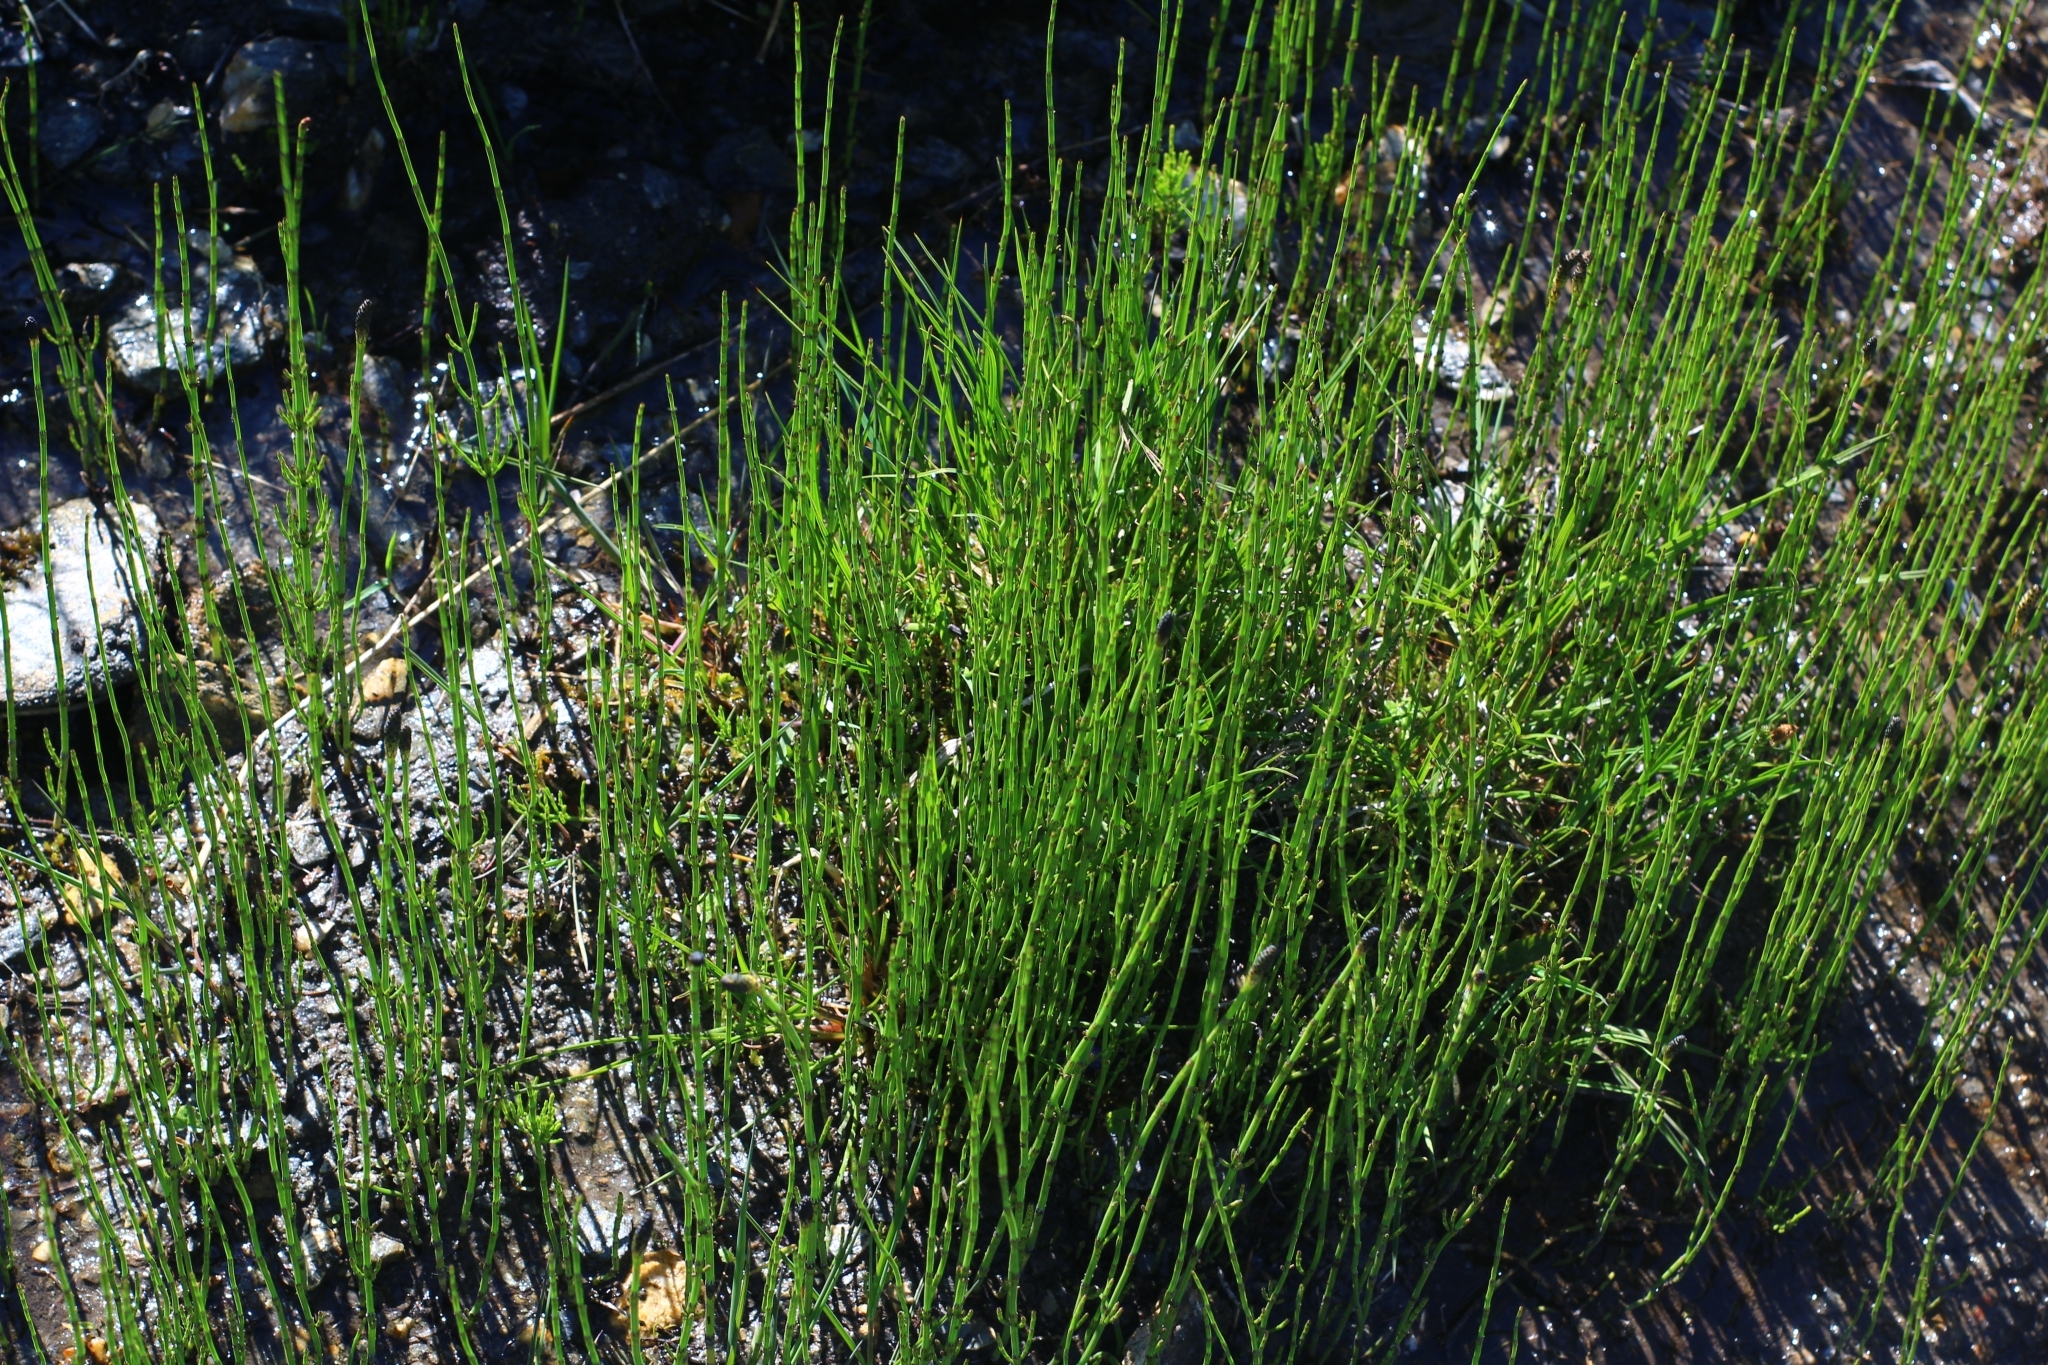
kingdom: Plantae
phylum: Tracheophyta
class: Polypodiopsida
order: Equisetales
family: Equisetaceae
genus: Equisetum
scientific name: Equisetum palustre
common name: Marsh horsetail
